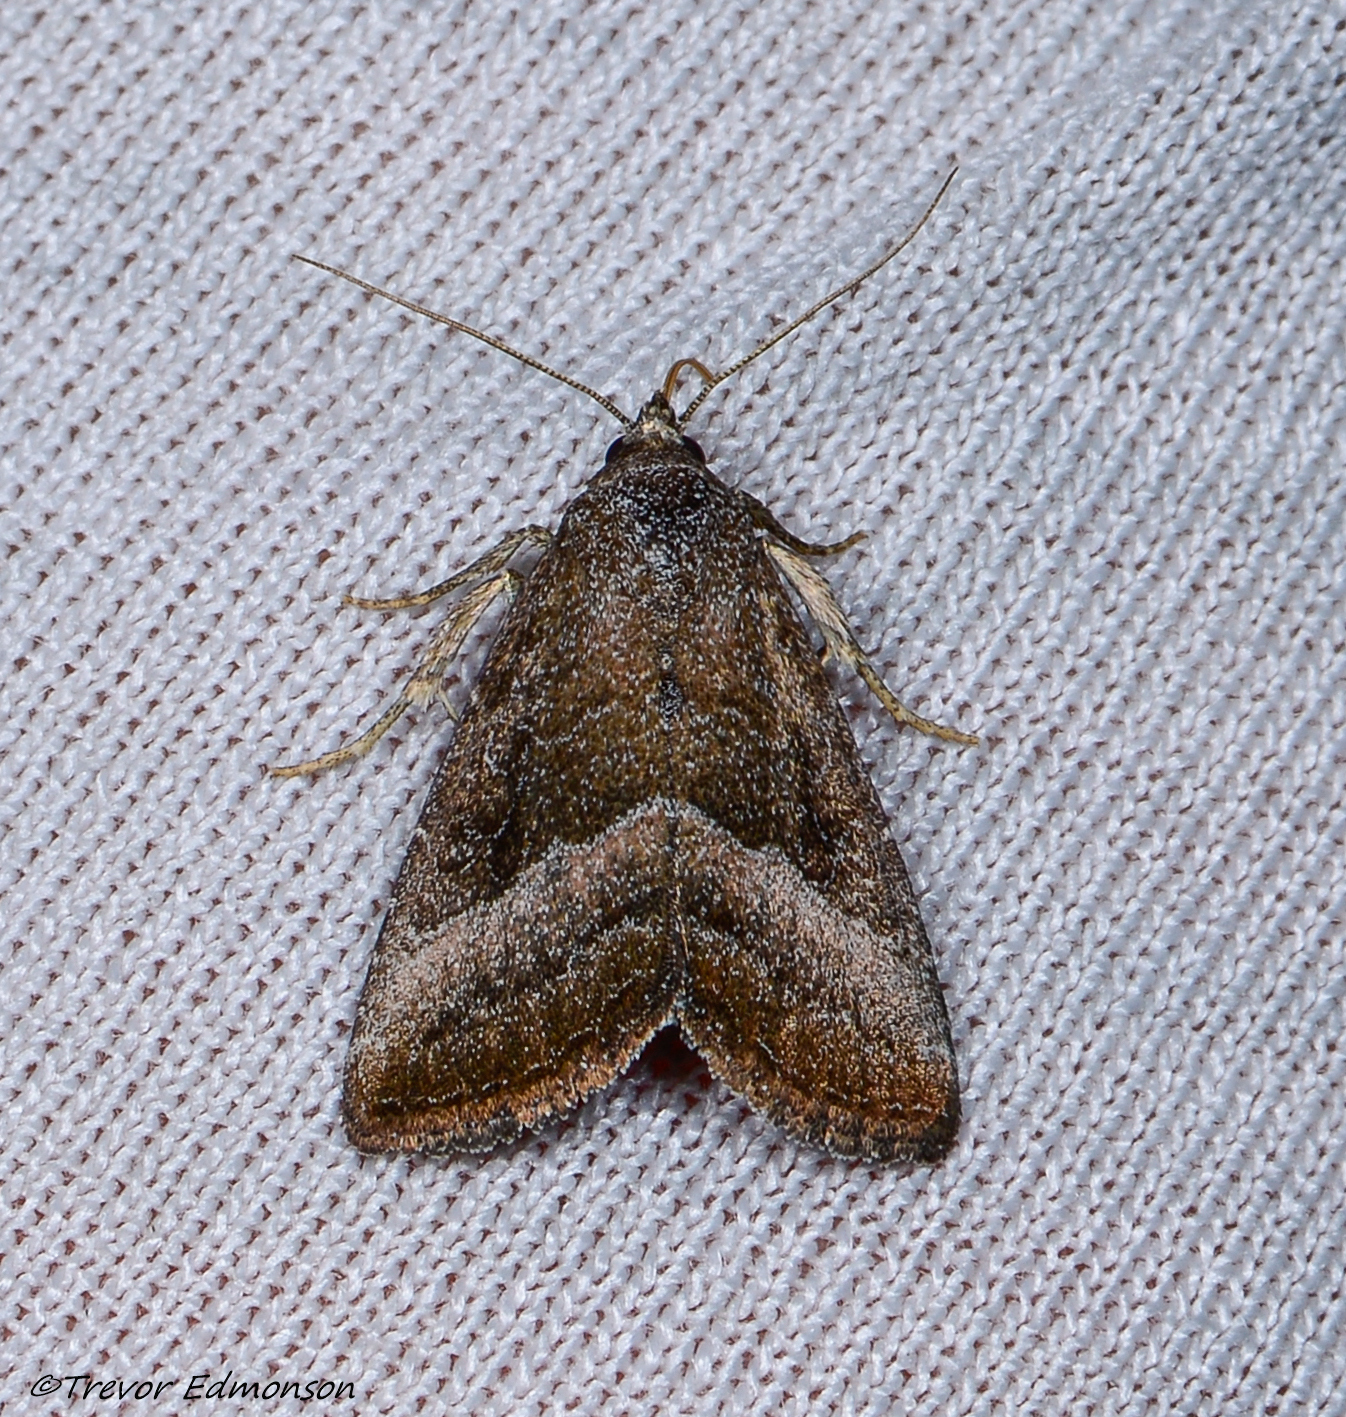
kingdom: Animalia
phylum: Arthropoda
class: Insecta
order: Lepidoptera
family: Noctuidae
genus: Ogdoconta
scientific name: Ogdoconta cinereola
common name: Common pinkband
